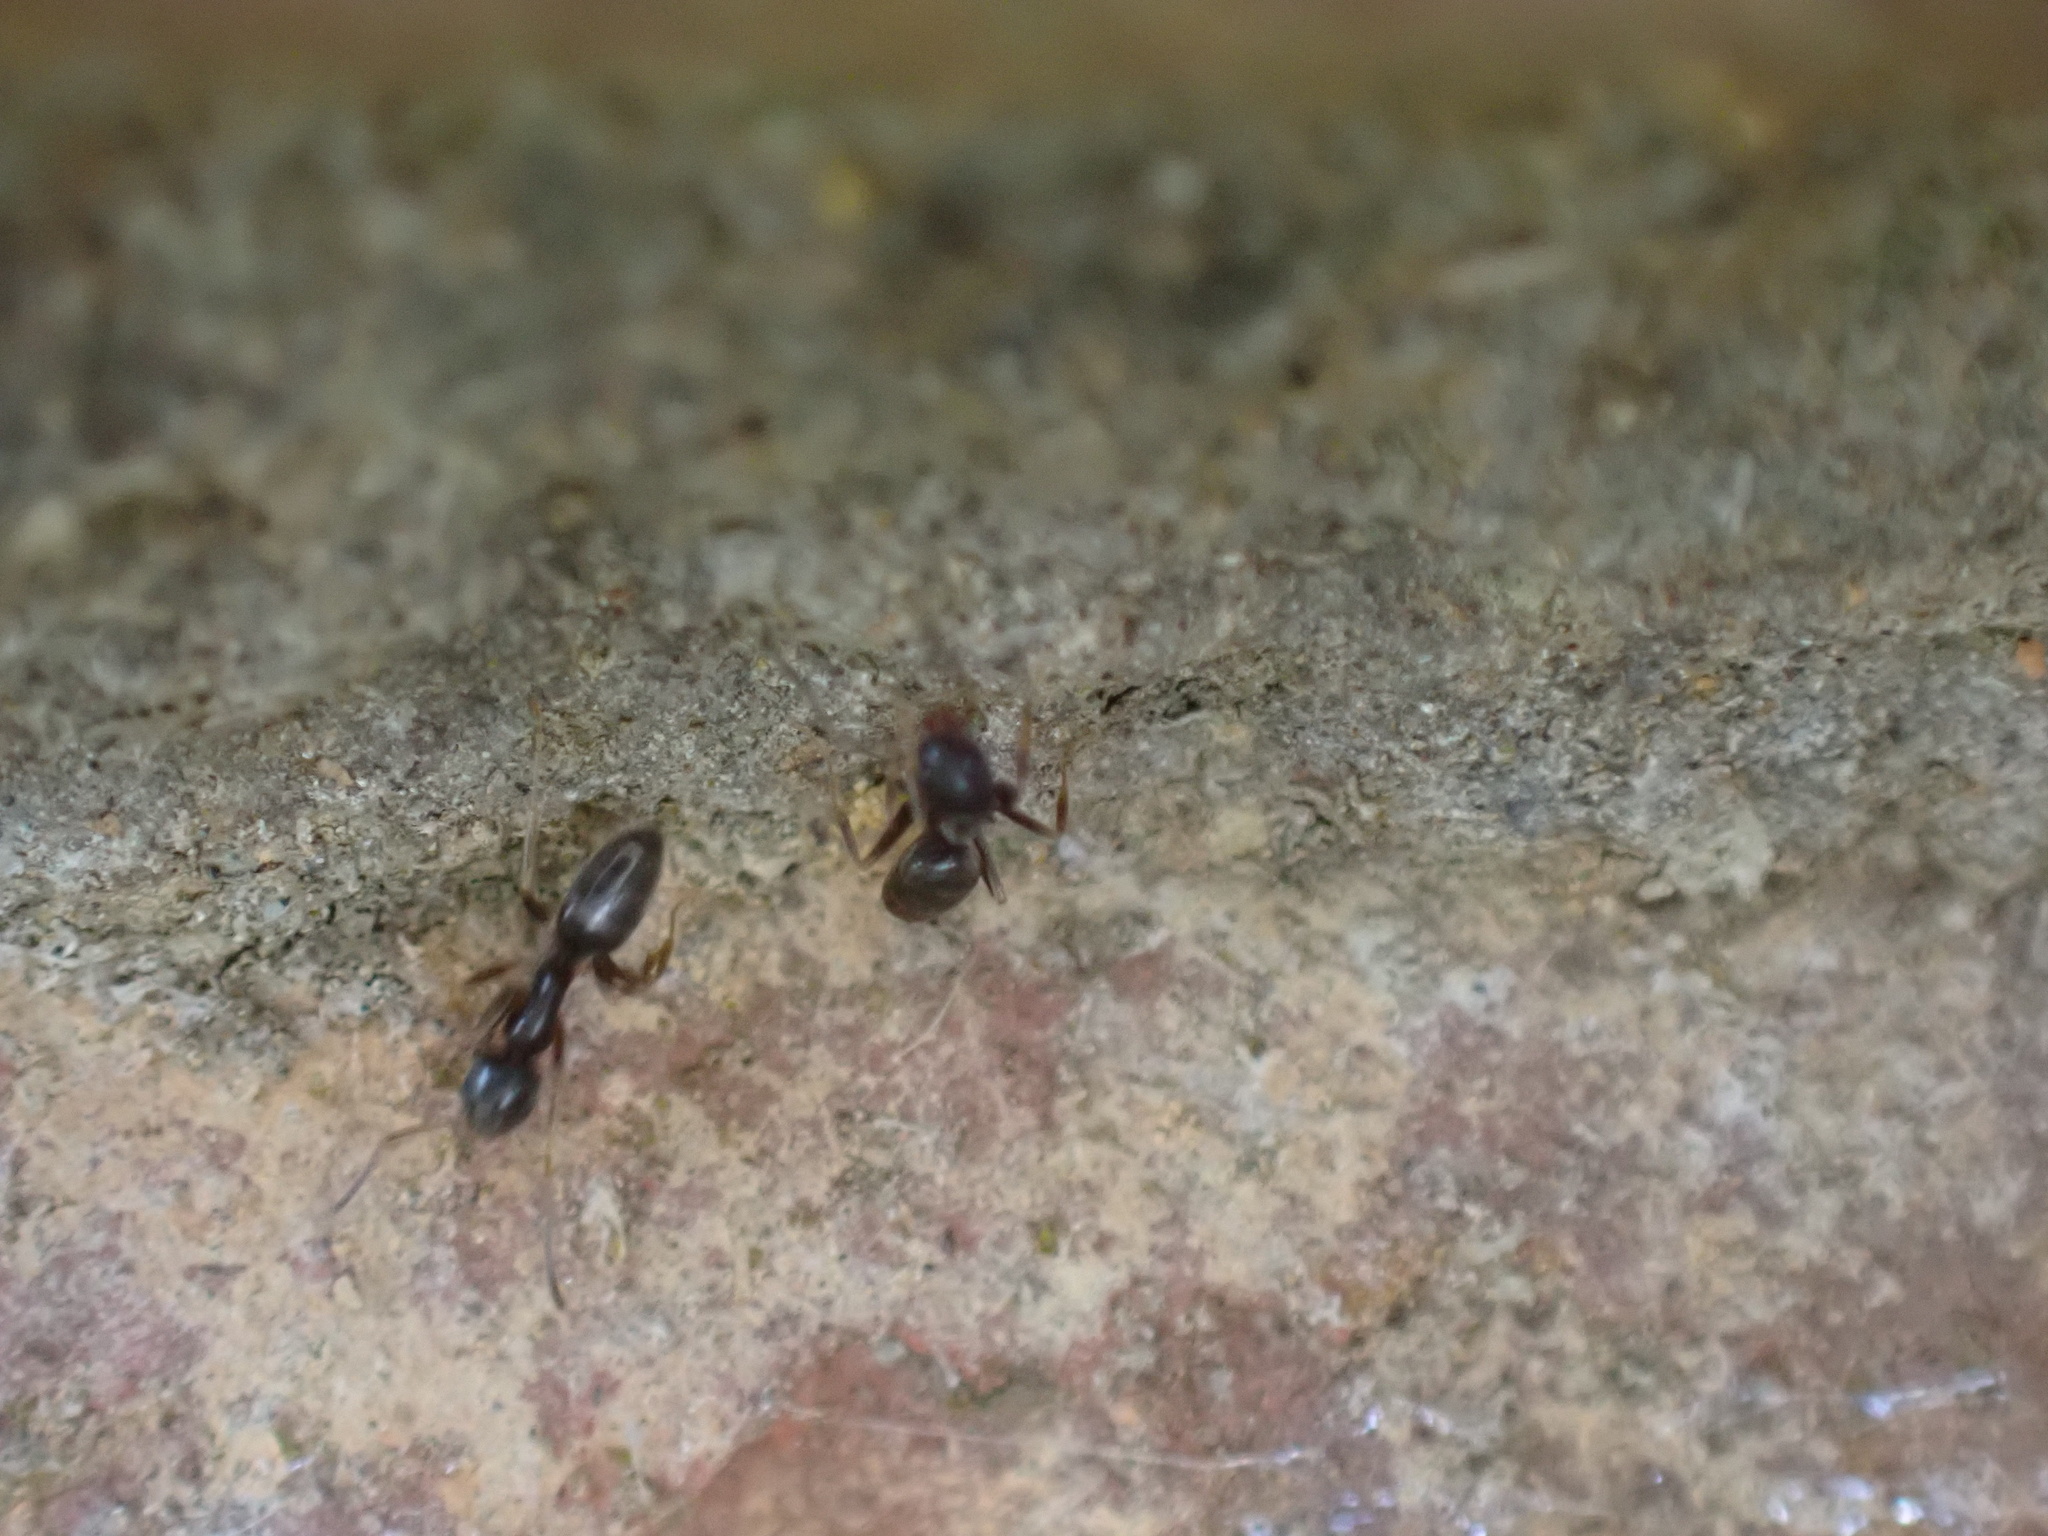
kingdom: Animalia
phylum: Arthropoda
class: Insecta
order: Hymenoptera
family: Formicidae
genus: Tapinoma
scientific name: Tapinoma sessile
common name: Odorous house ant
